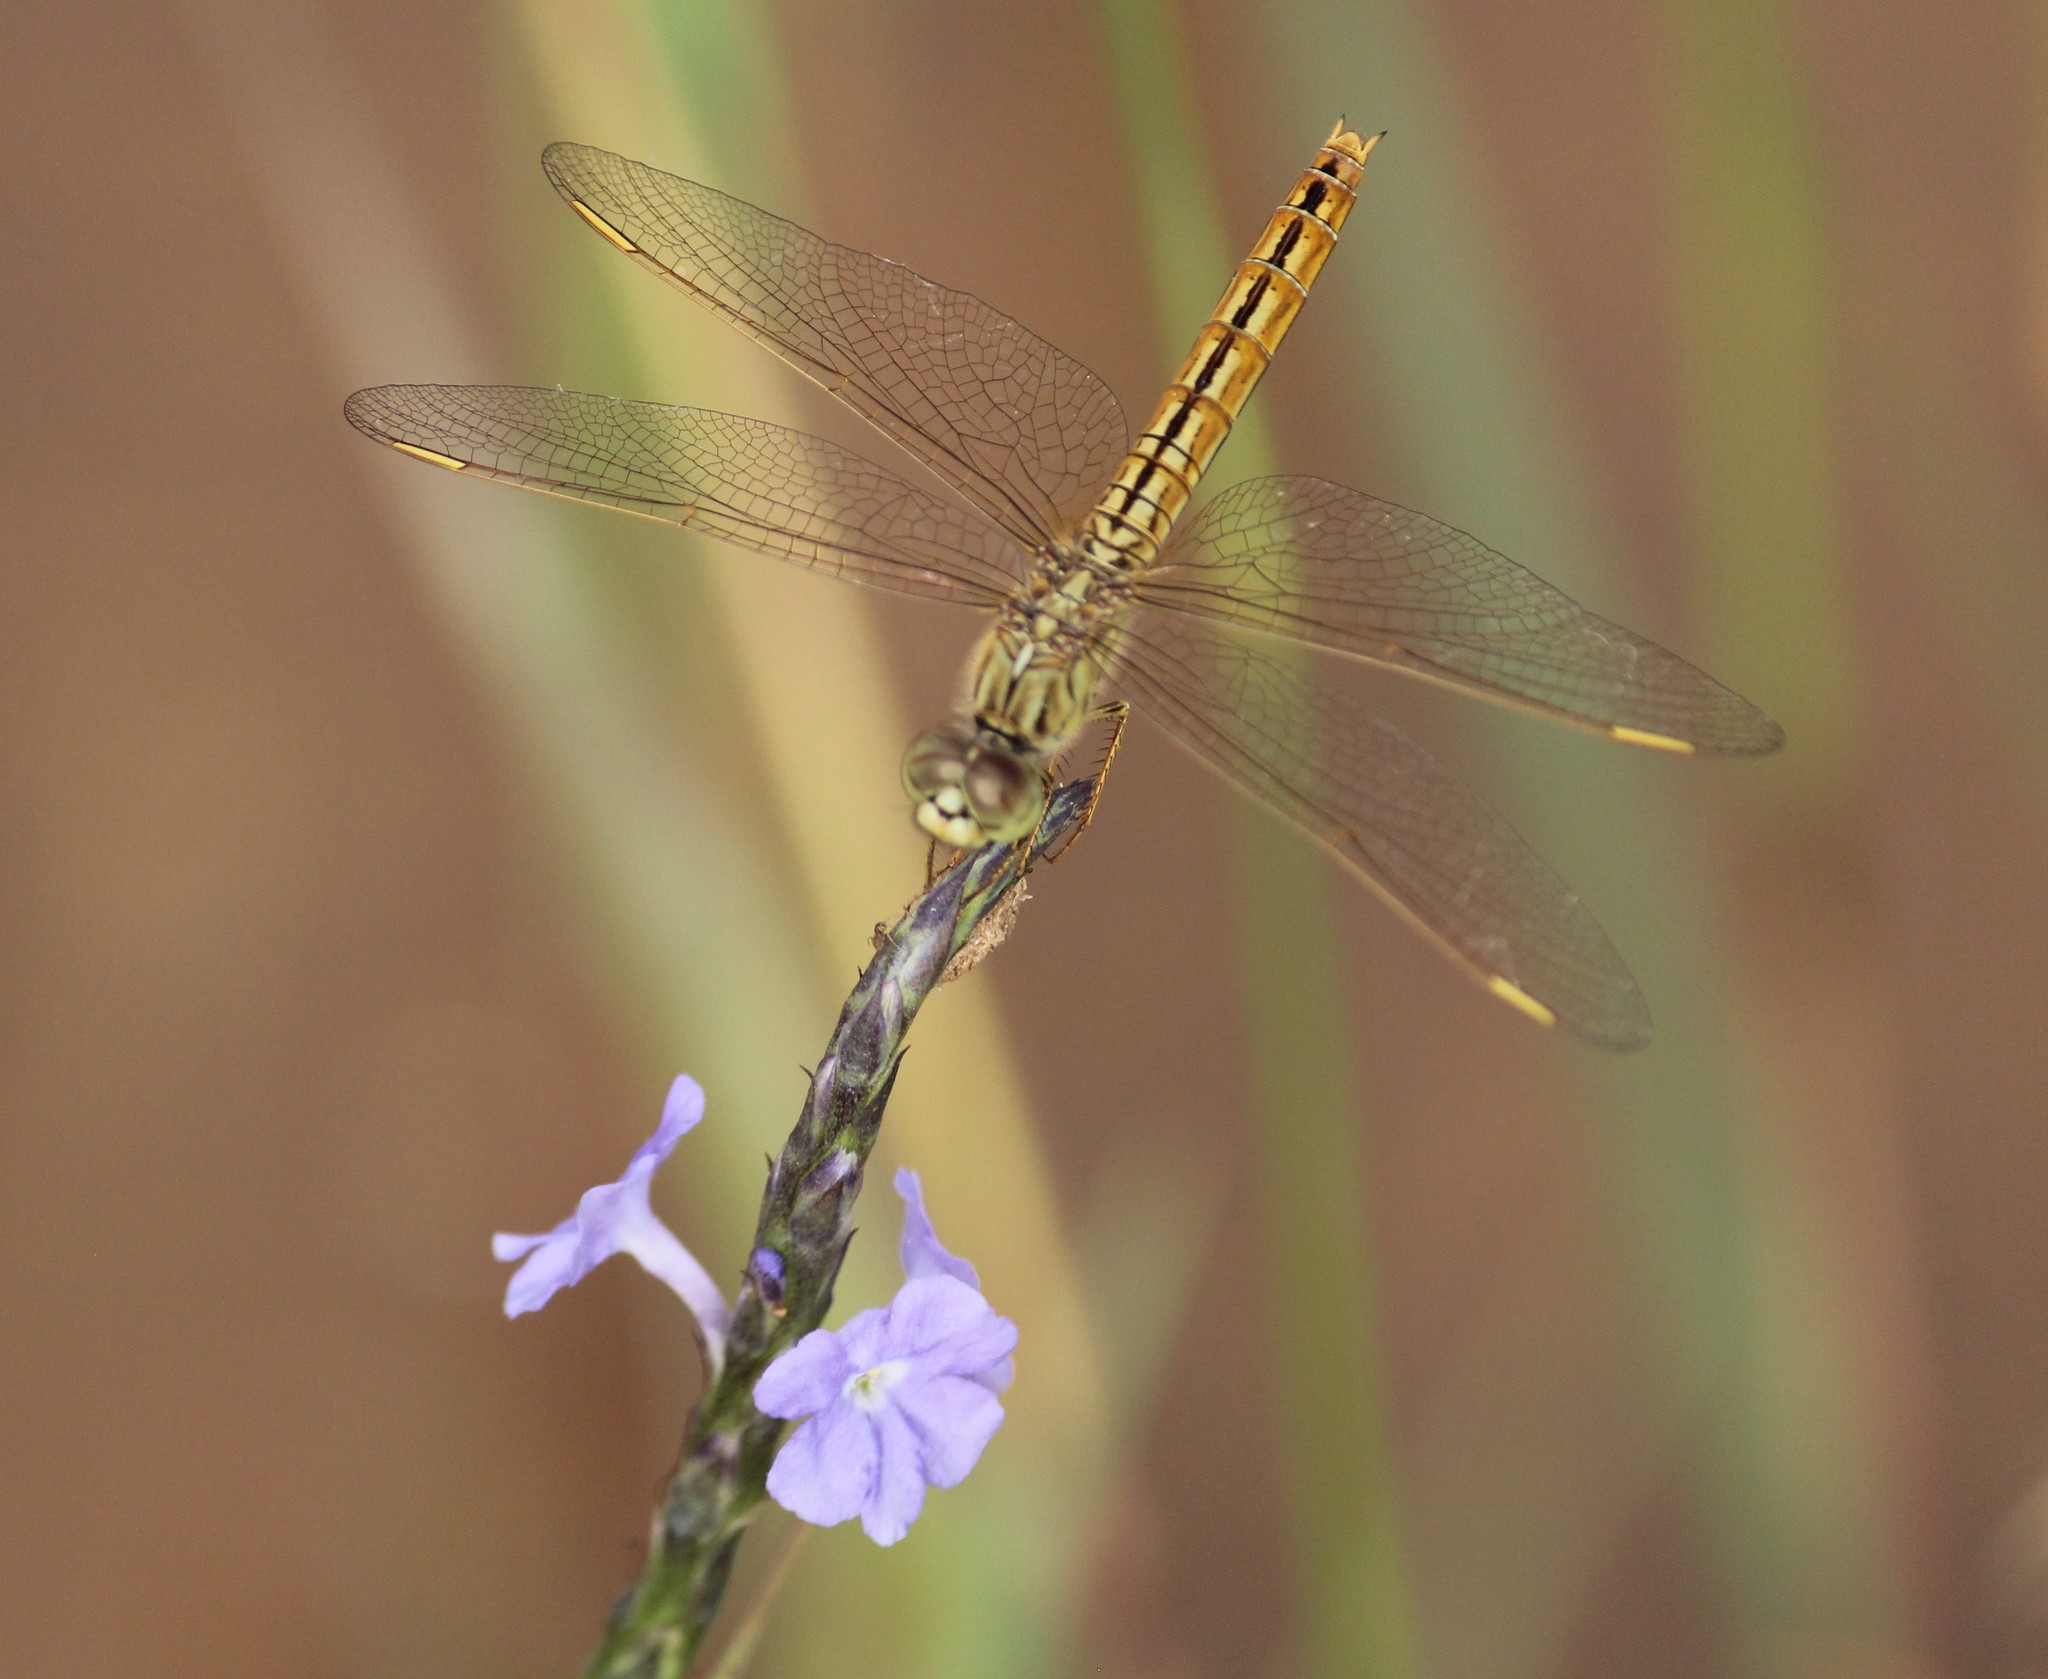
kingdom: Animalia
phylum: Arthropoda
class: Insecta
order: Odonata
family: Libellulidae
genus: Brachythemis
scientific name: Brachythemis contaminata
